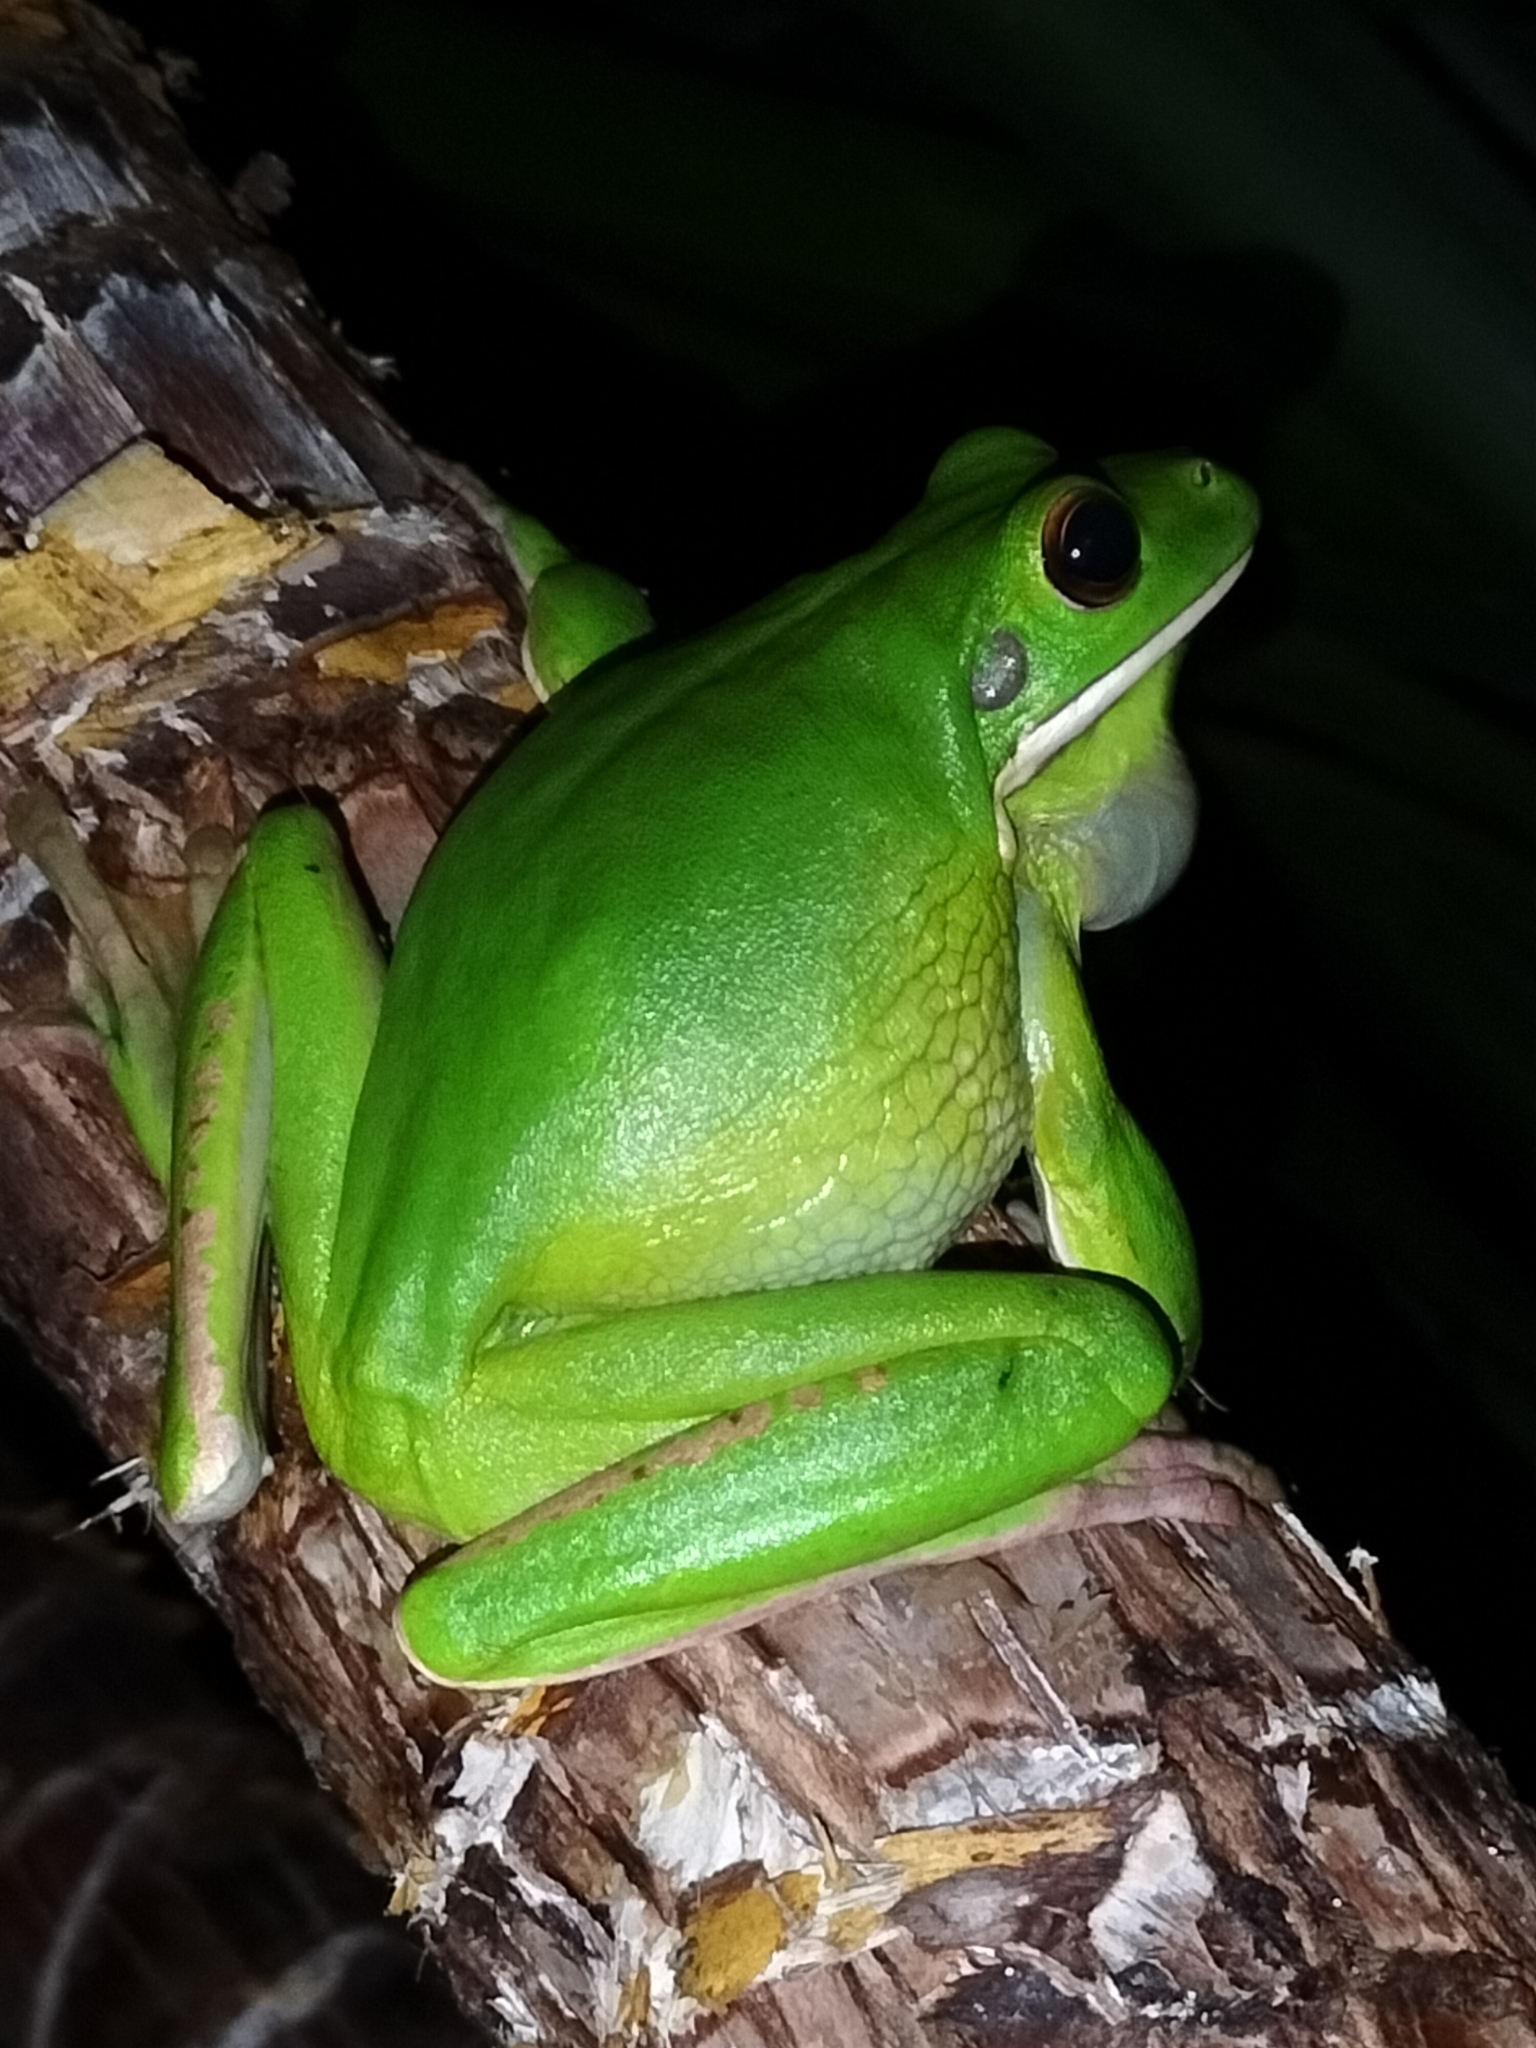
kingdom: Animalia
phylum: Chordata
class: Amphibia
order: Anura
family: Pelodryadidae
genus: Nyctimystes
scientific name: Nyctimystes infrafrenatus
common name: Australian giant treefrog
